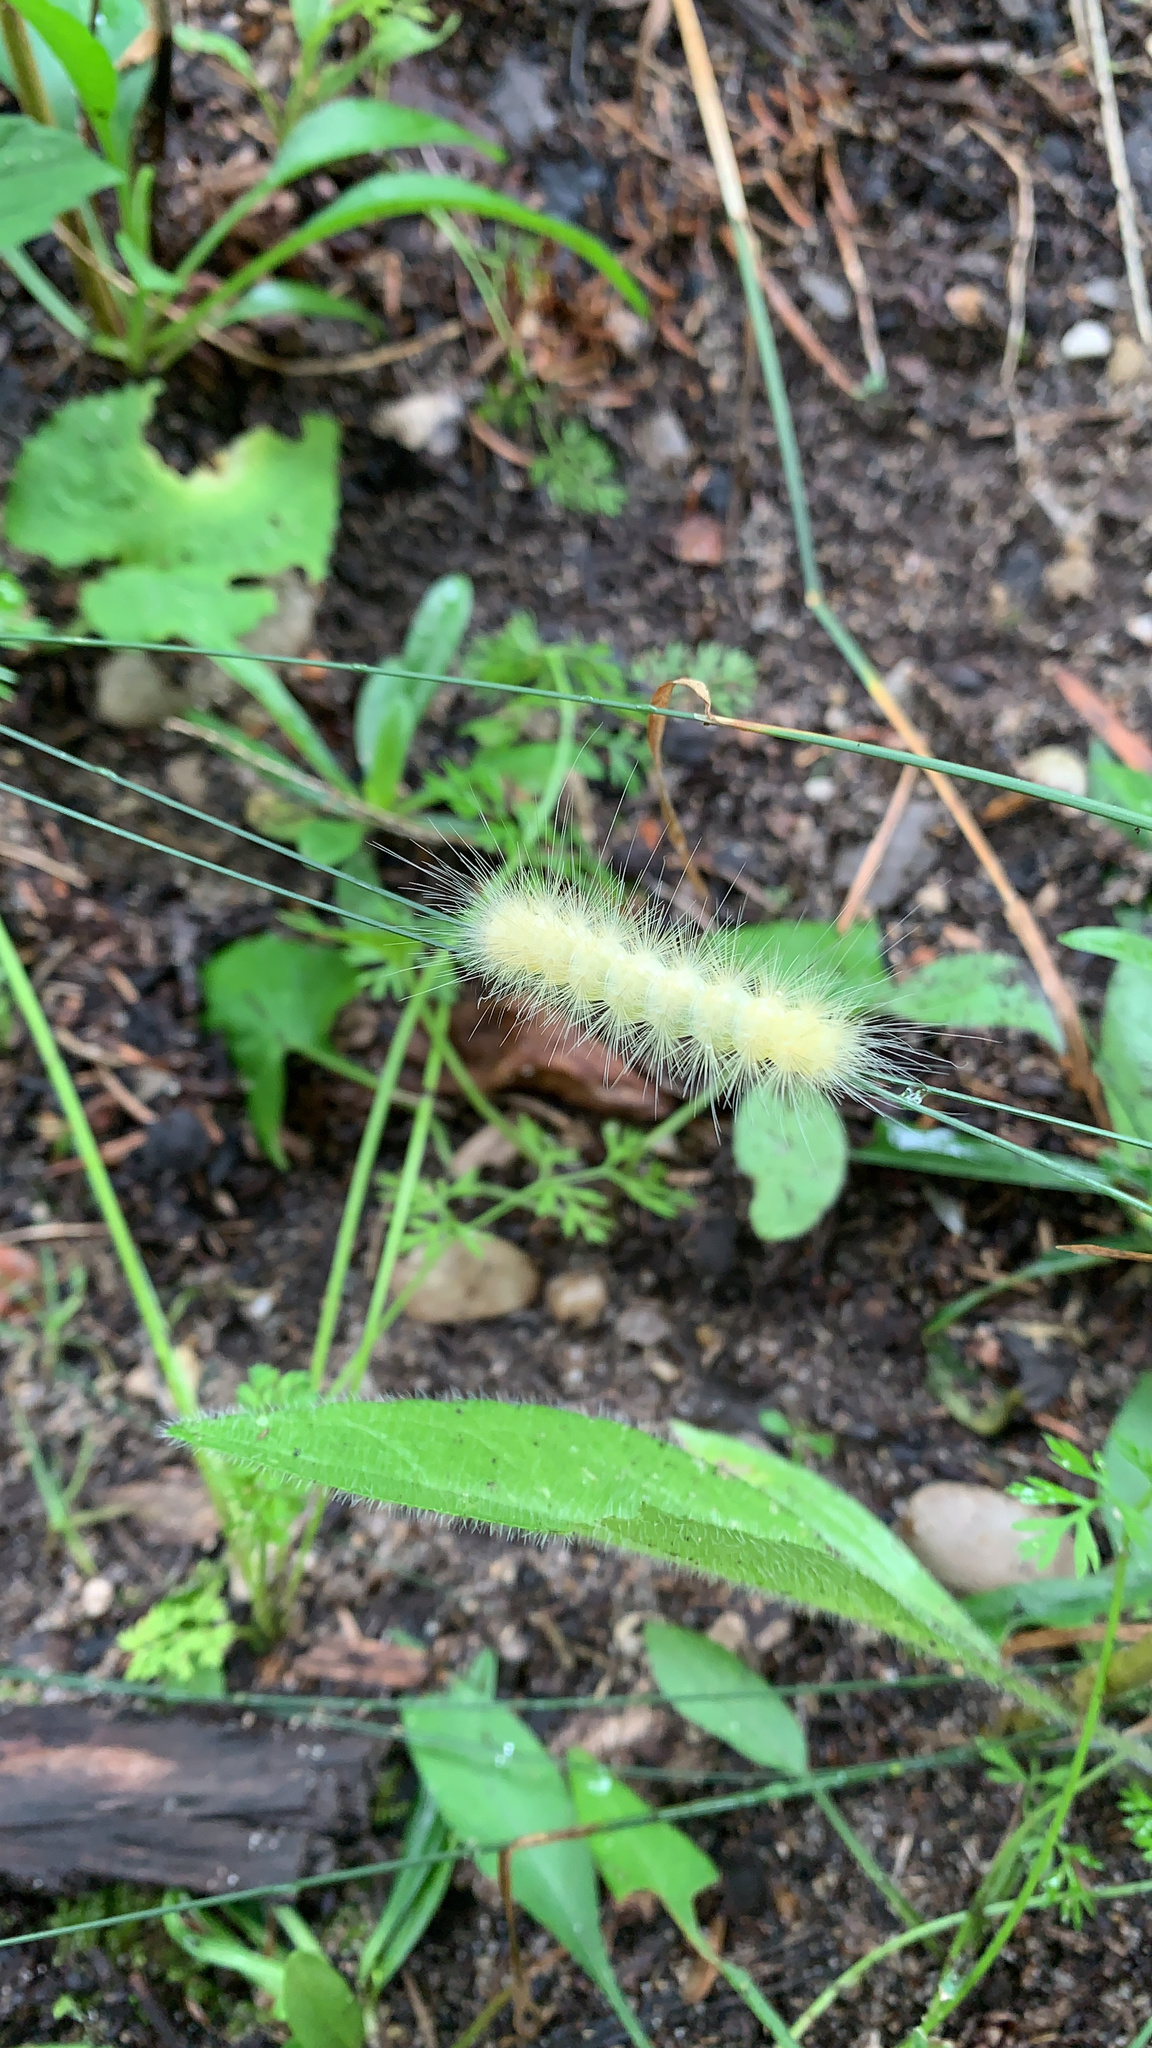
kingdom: Animalia
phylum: Arthropoda
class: Insecta
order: Lepidoptera
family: Erebidae
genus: Spilosoma
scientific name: Spilosoma virginica
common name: Virginia tiger moth
